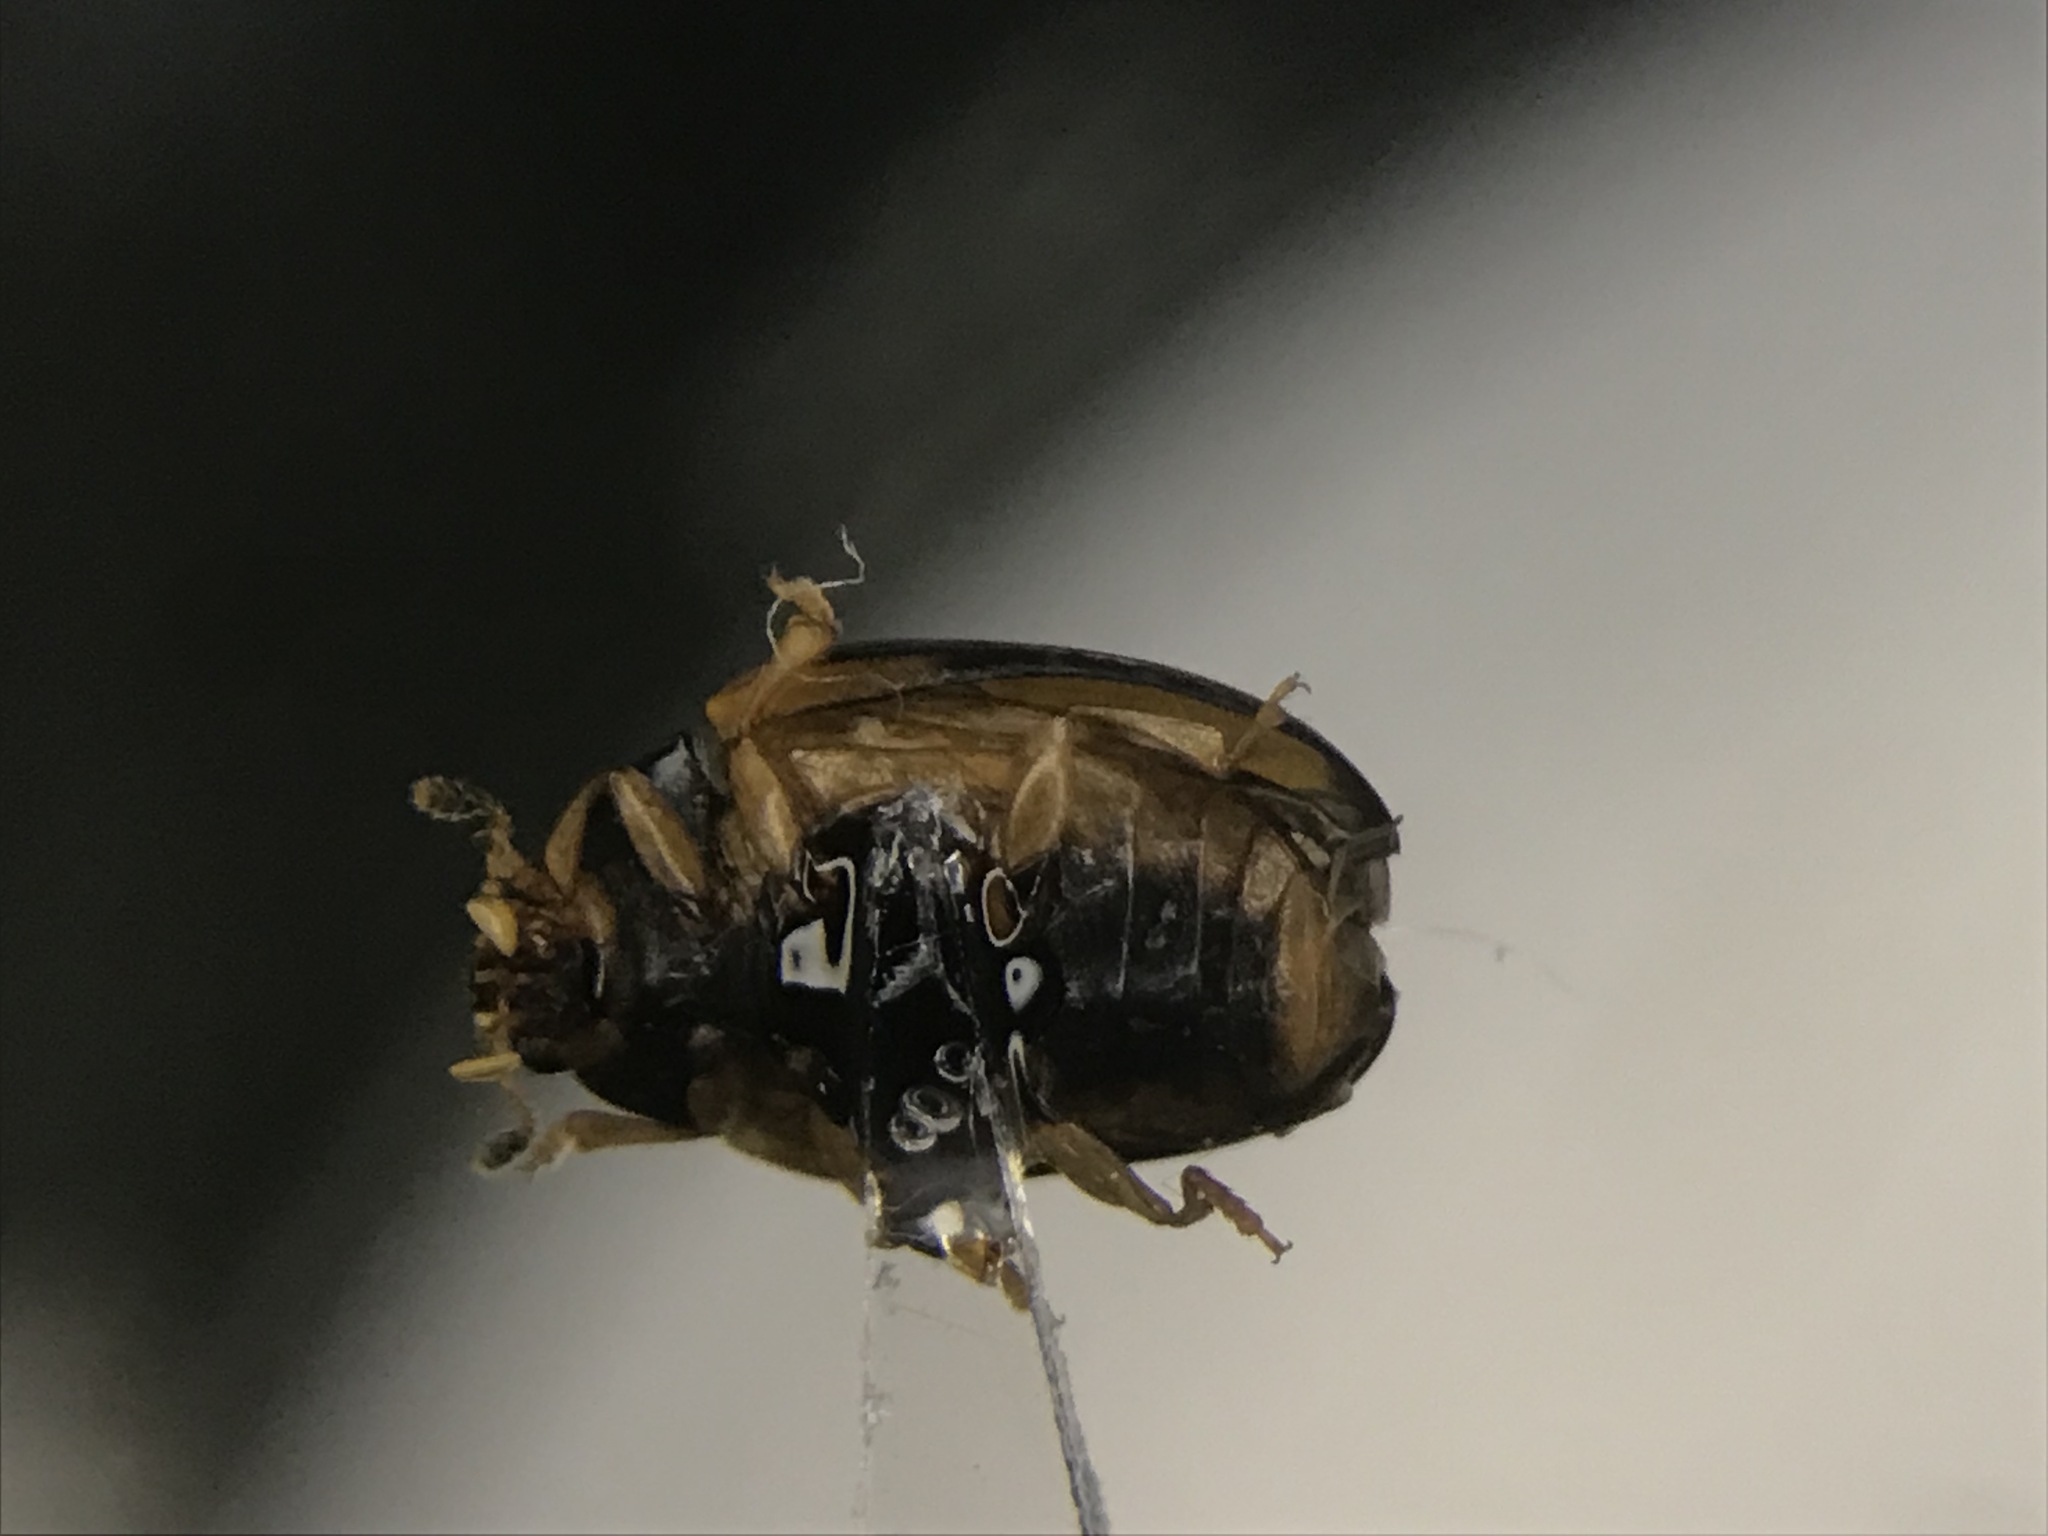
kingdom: Animalia
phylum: Arthropoda
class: Insecta
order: Coleoptera
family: Erotylidae
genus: Tritoma
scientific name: Tritoma mimetica
